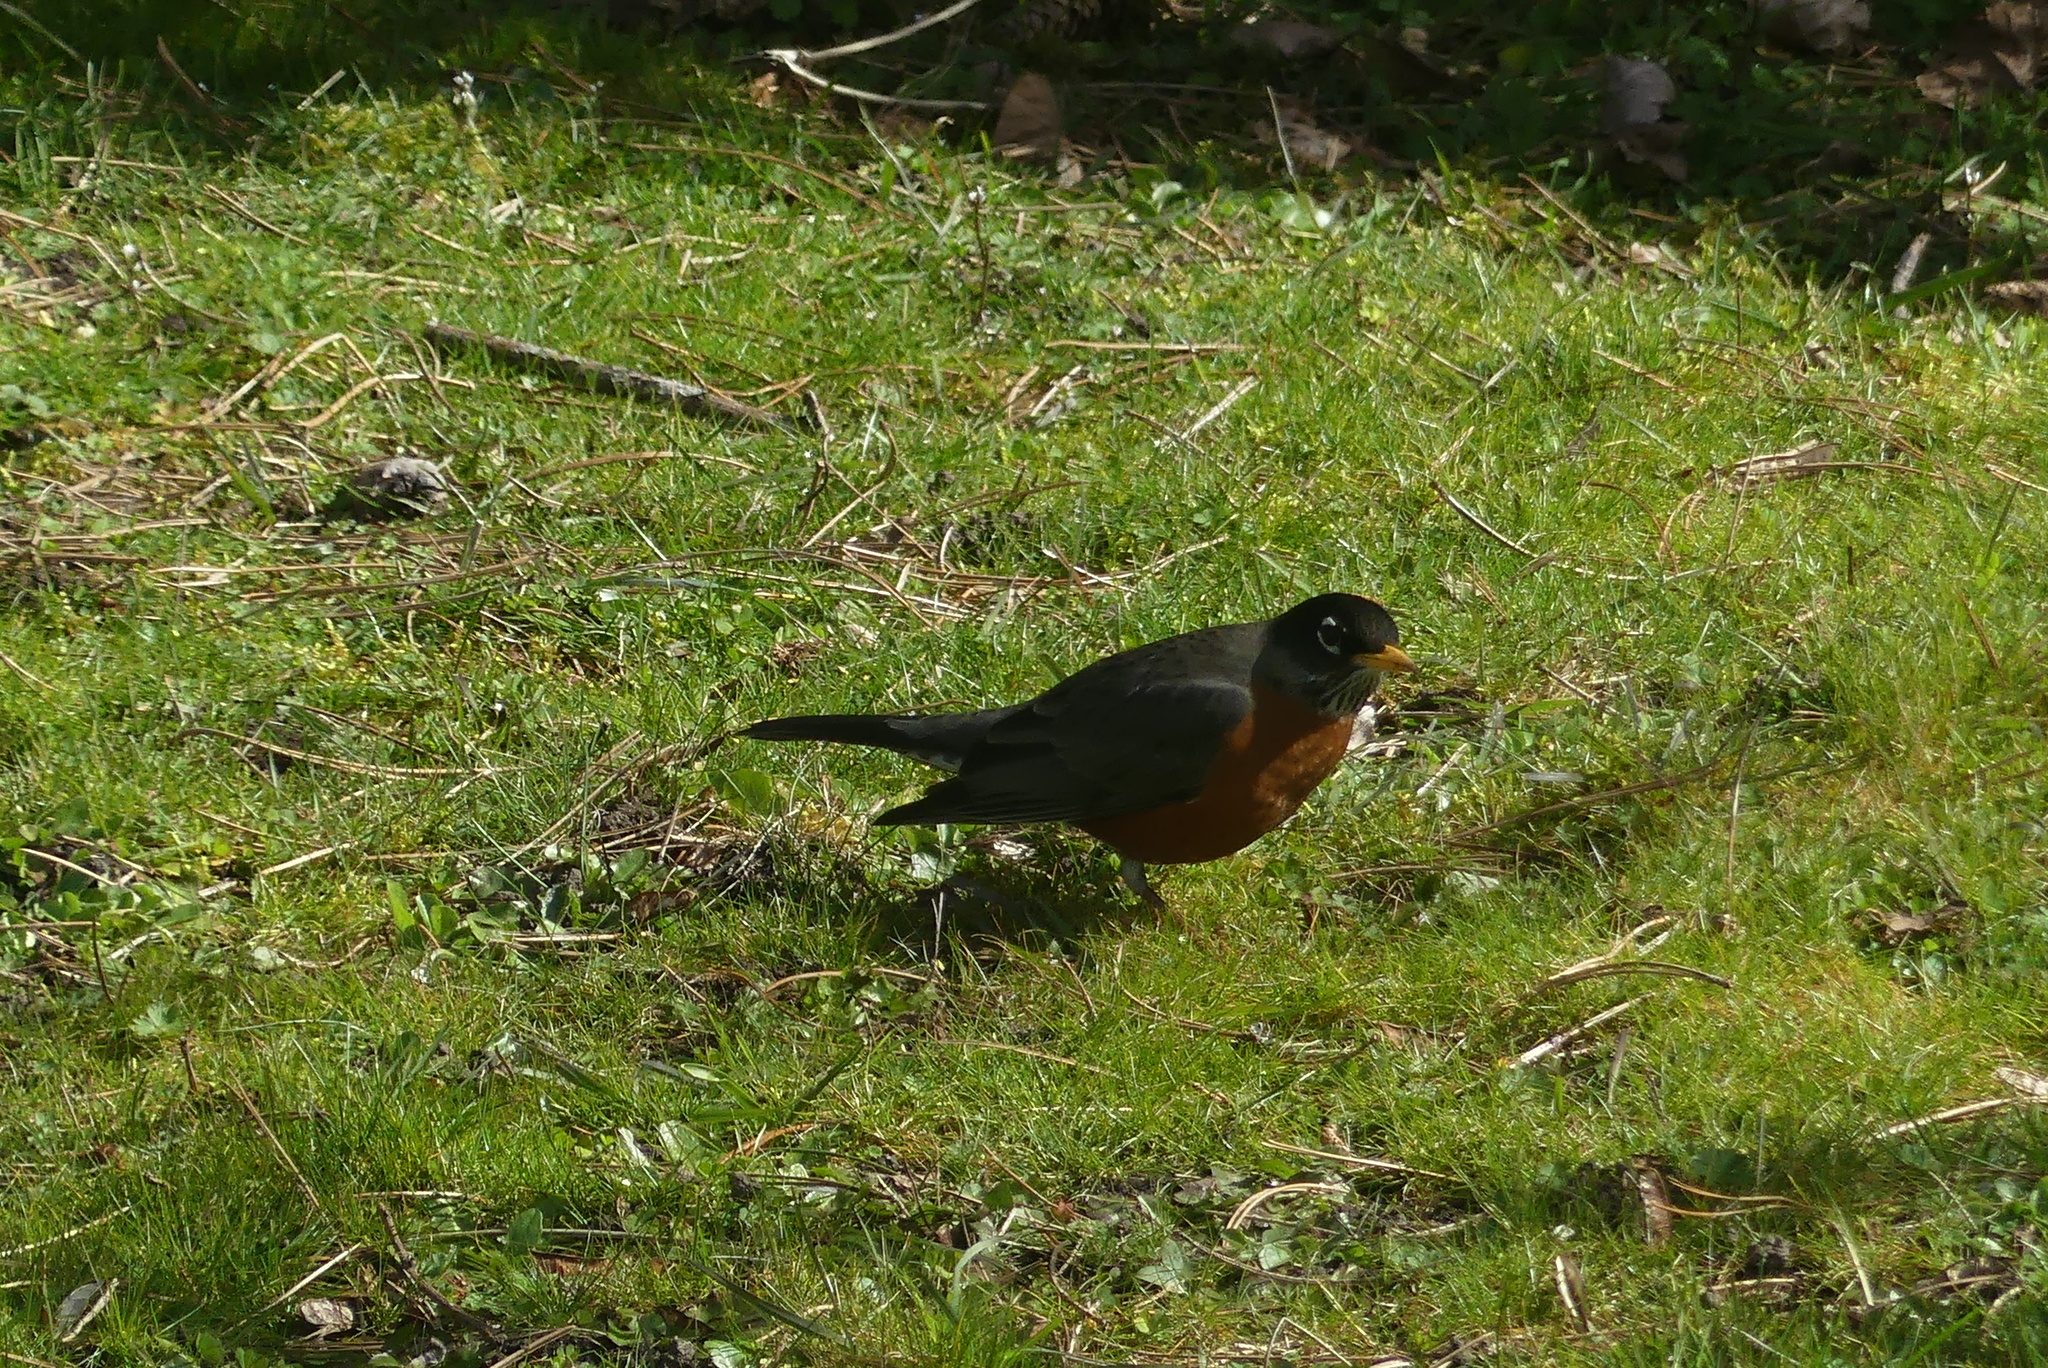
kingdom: Animalia
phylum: Chordata
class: Aves
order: Passeriformes
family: Turdidae
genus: Turdus
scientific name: Turdus migratorius
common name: American robin
